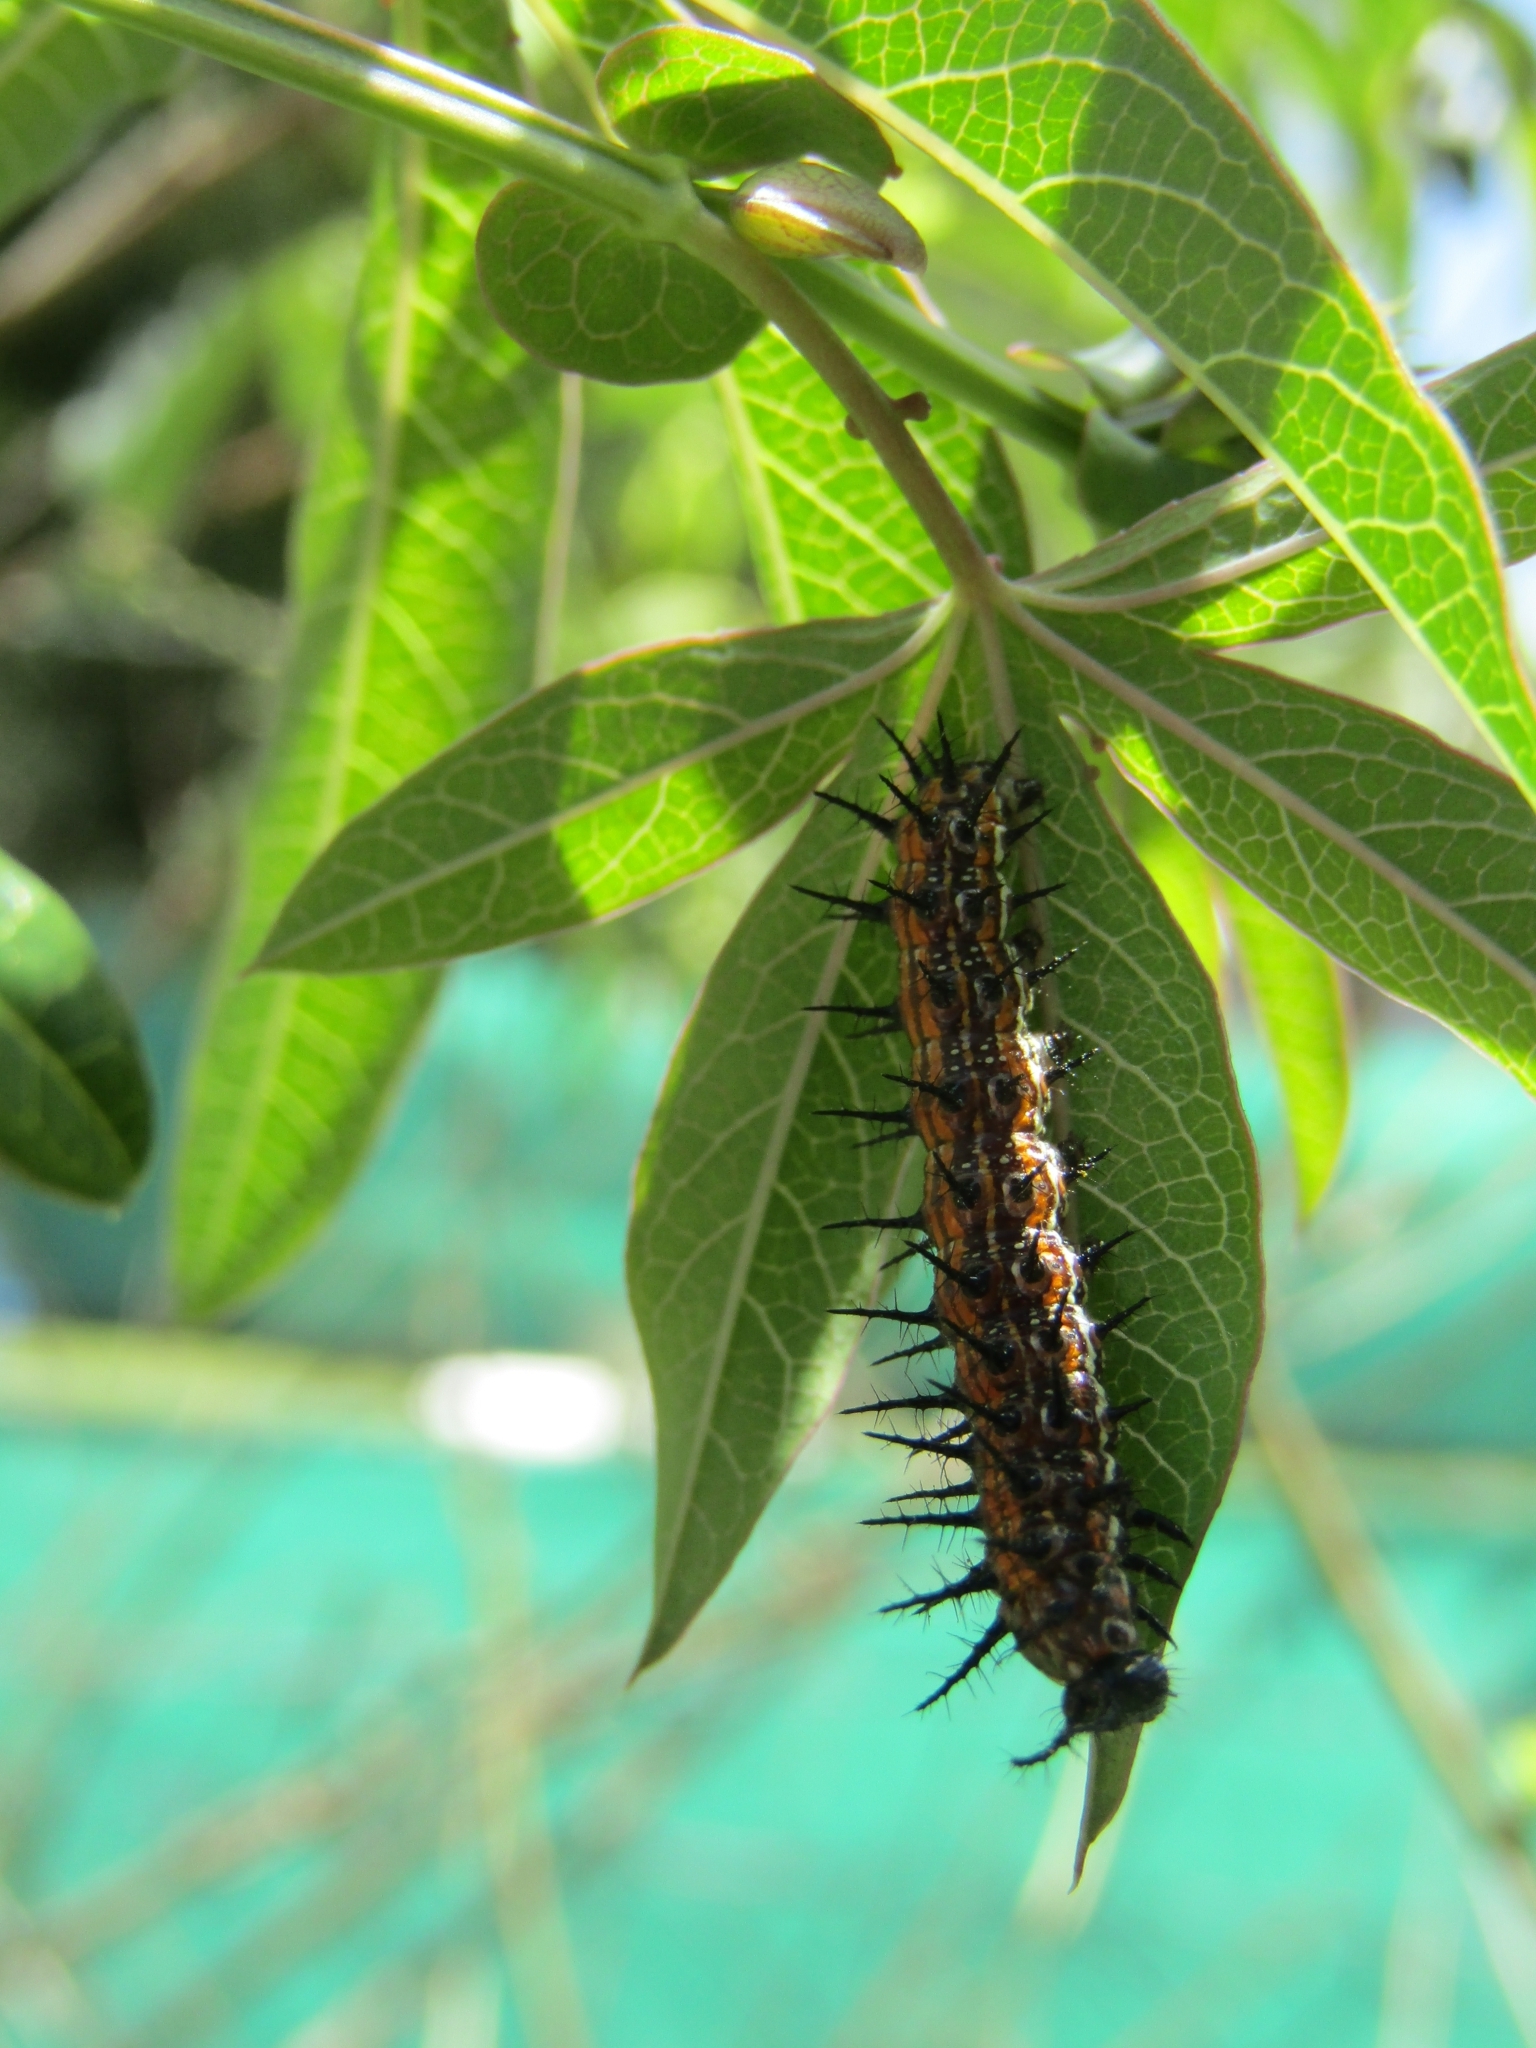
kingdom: Animalia
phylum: Arthropoda
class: Insecta
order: Lepidoptera
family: Nymphalidae
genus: Dione
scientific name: Dione vanillae
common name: Gulf fritillary
